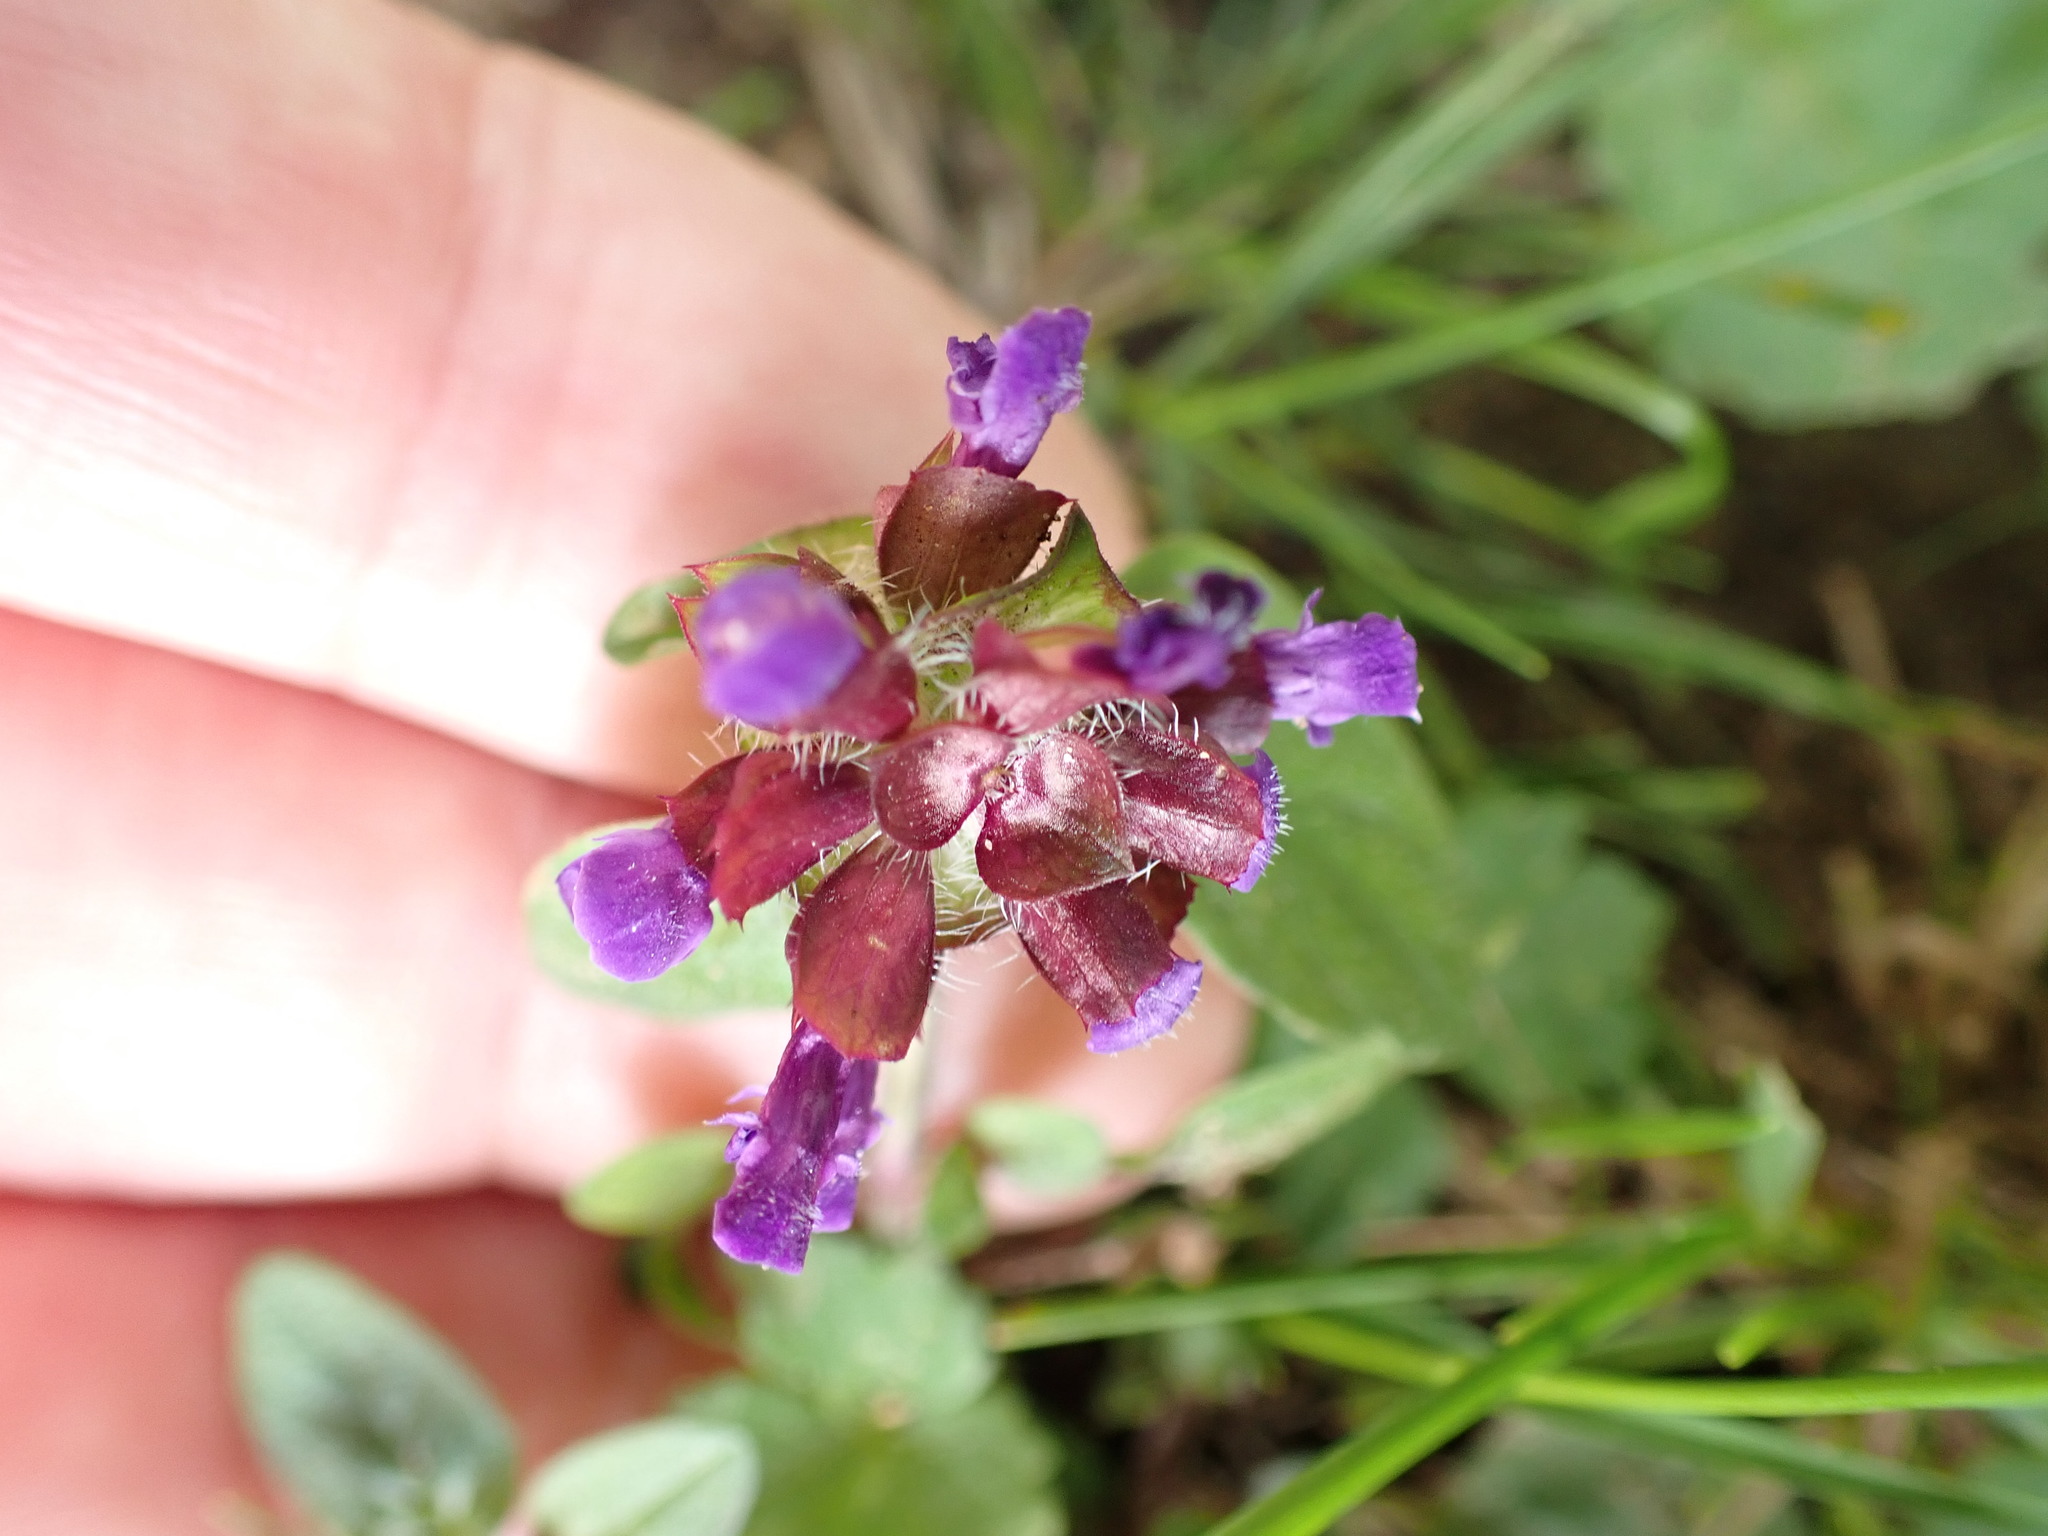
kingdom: Plantae
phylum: Tracheophyta
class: Magnoliopsida
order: Lamiales
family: Lamiaceae
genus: Prunella
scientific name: Prunella vulgaris
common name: Heal-all
